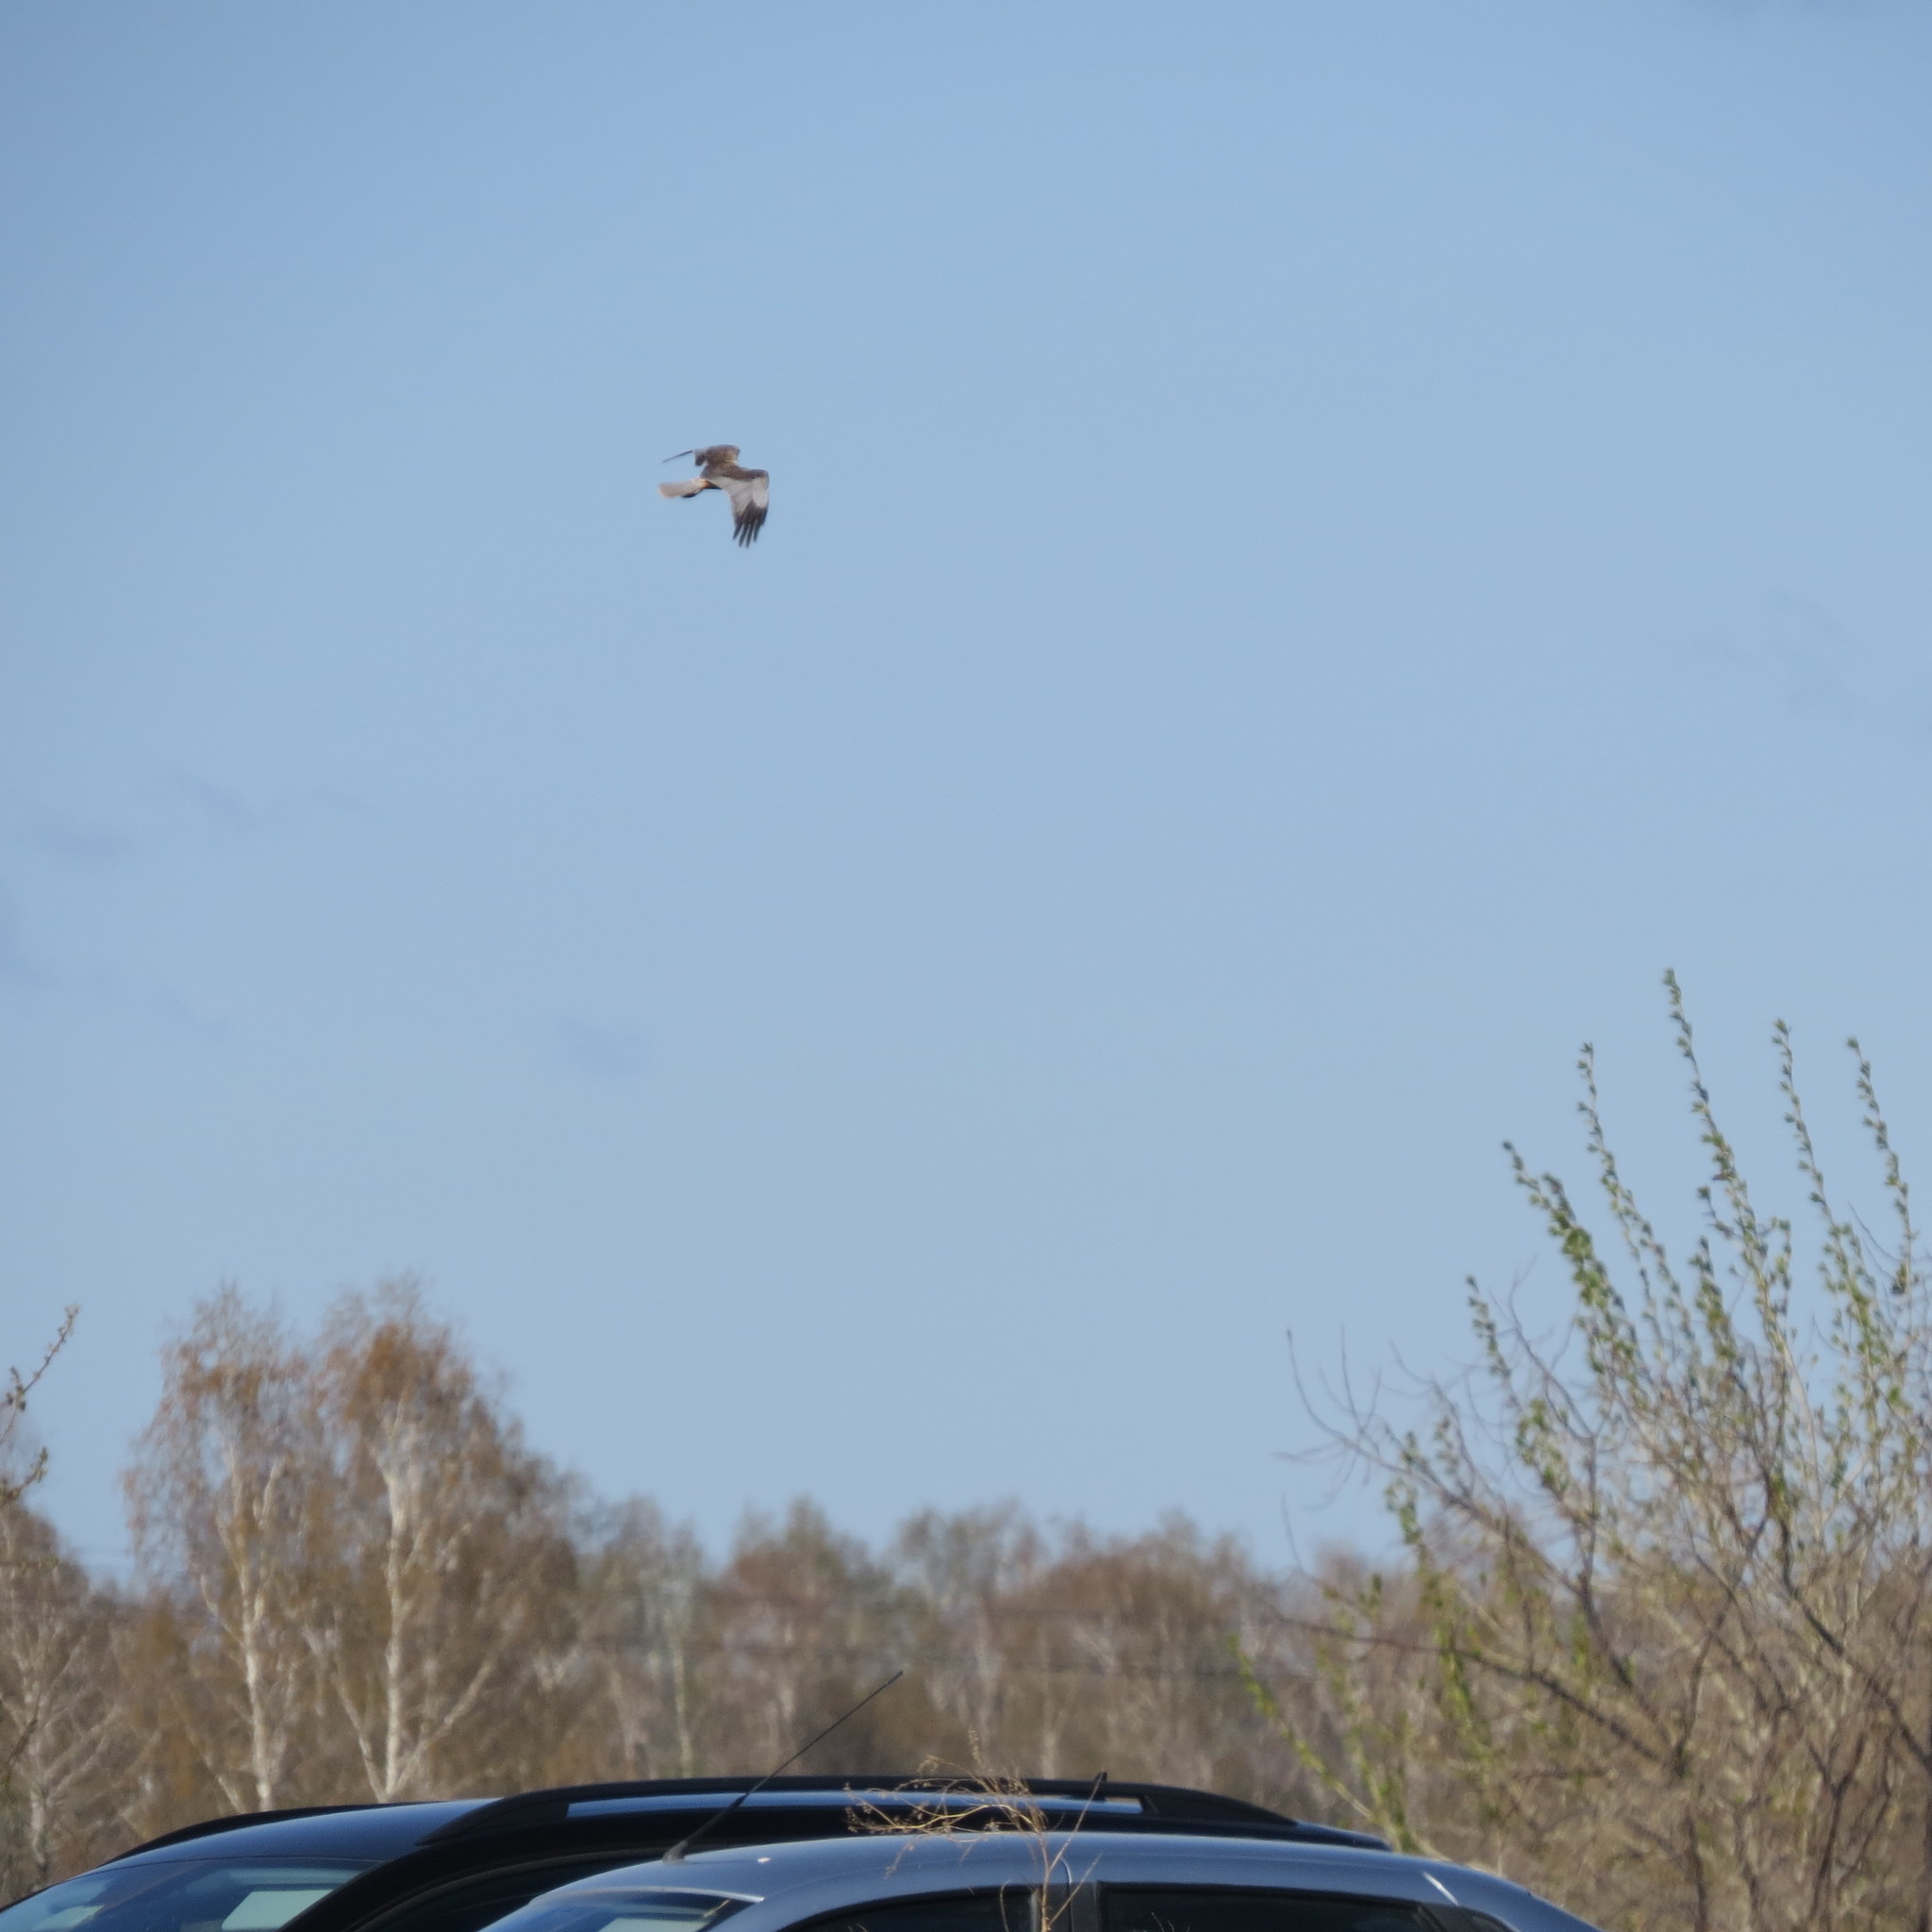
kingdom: Animalia
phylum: Chordata
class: Aves
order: Accipitriformes
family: Accipitridae
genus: Circus
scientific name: Circus aeruginosus
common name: Western marsh harrier
